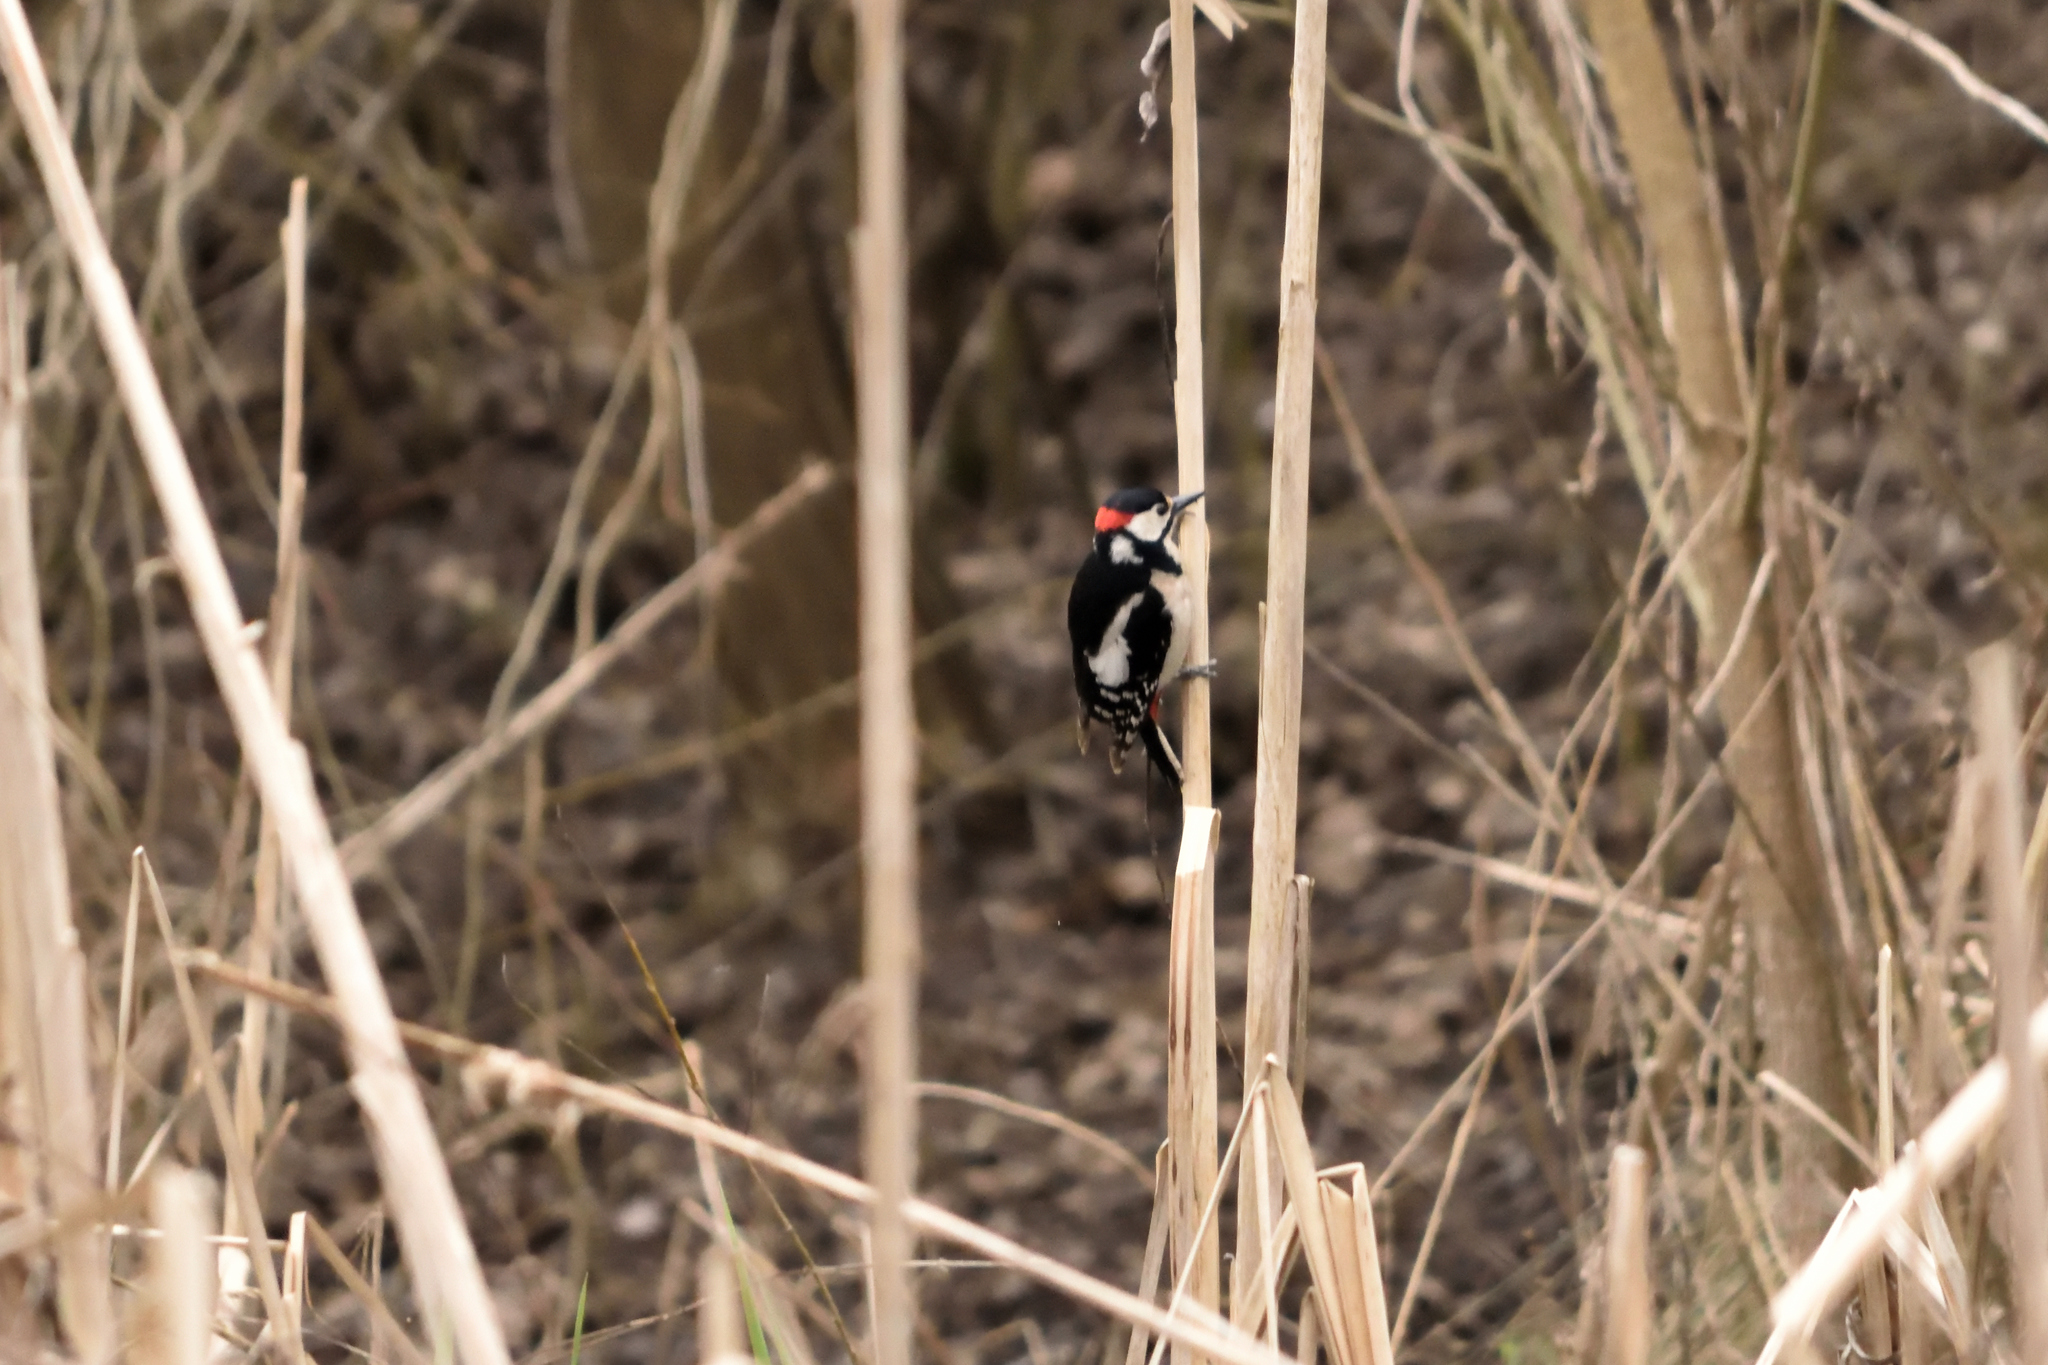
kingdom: Animalia
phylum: Chordata
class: Aves
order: Piciformes
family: Picidae
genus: Dendrocopos
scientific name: Dendrocopos major
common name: Great spotted woodpecker
